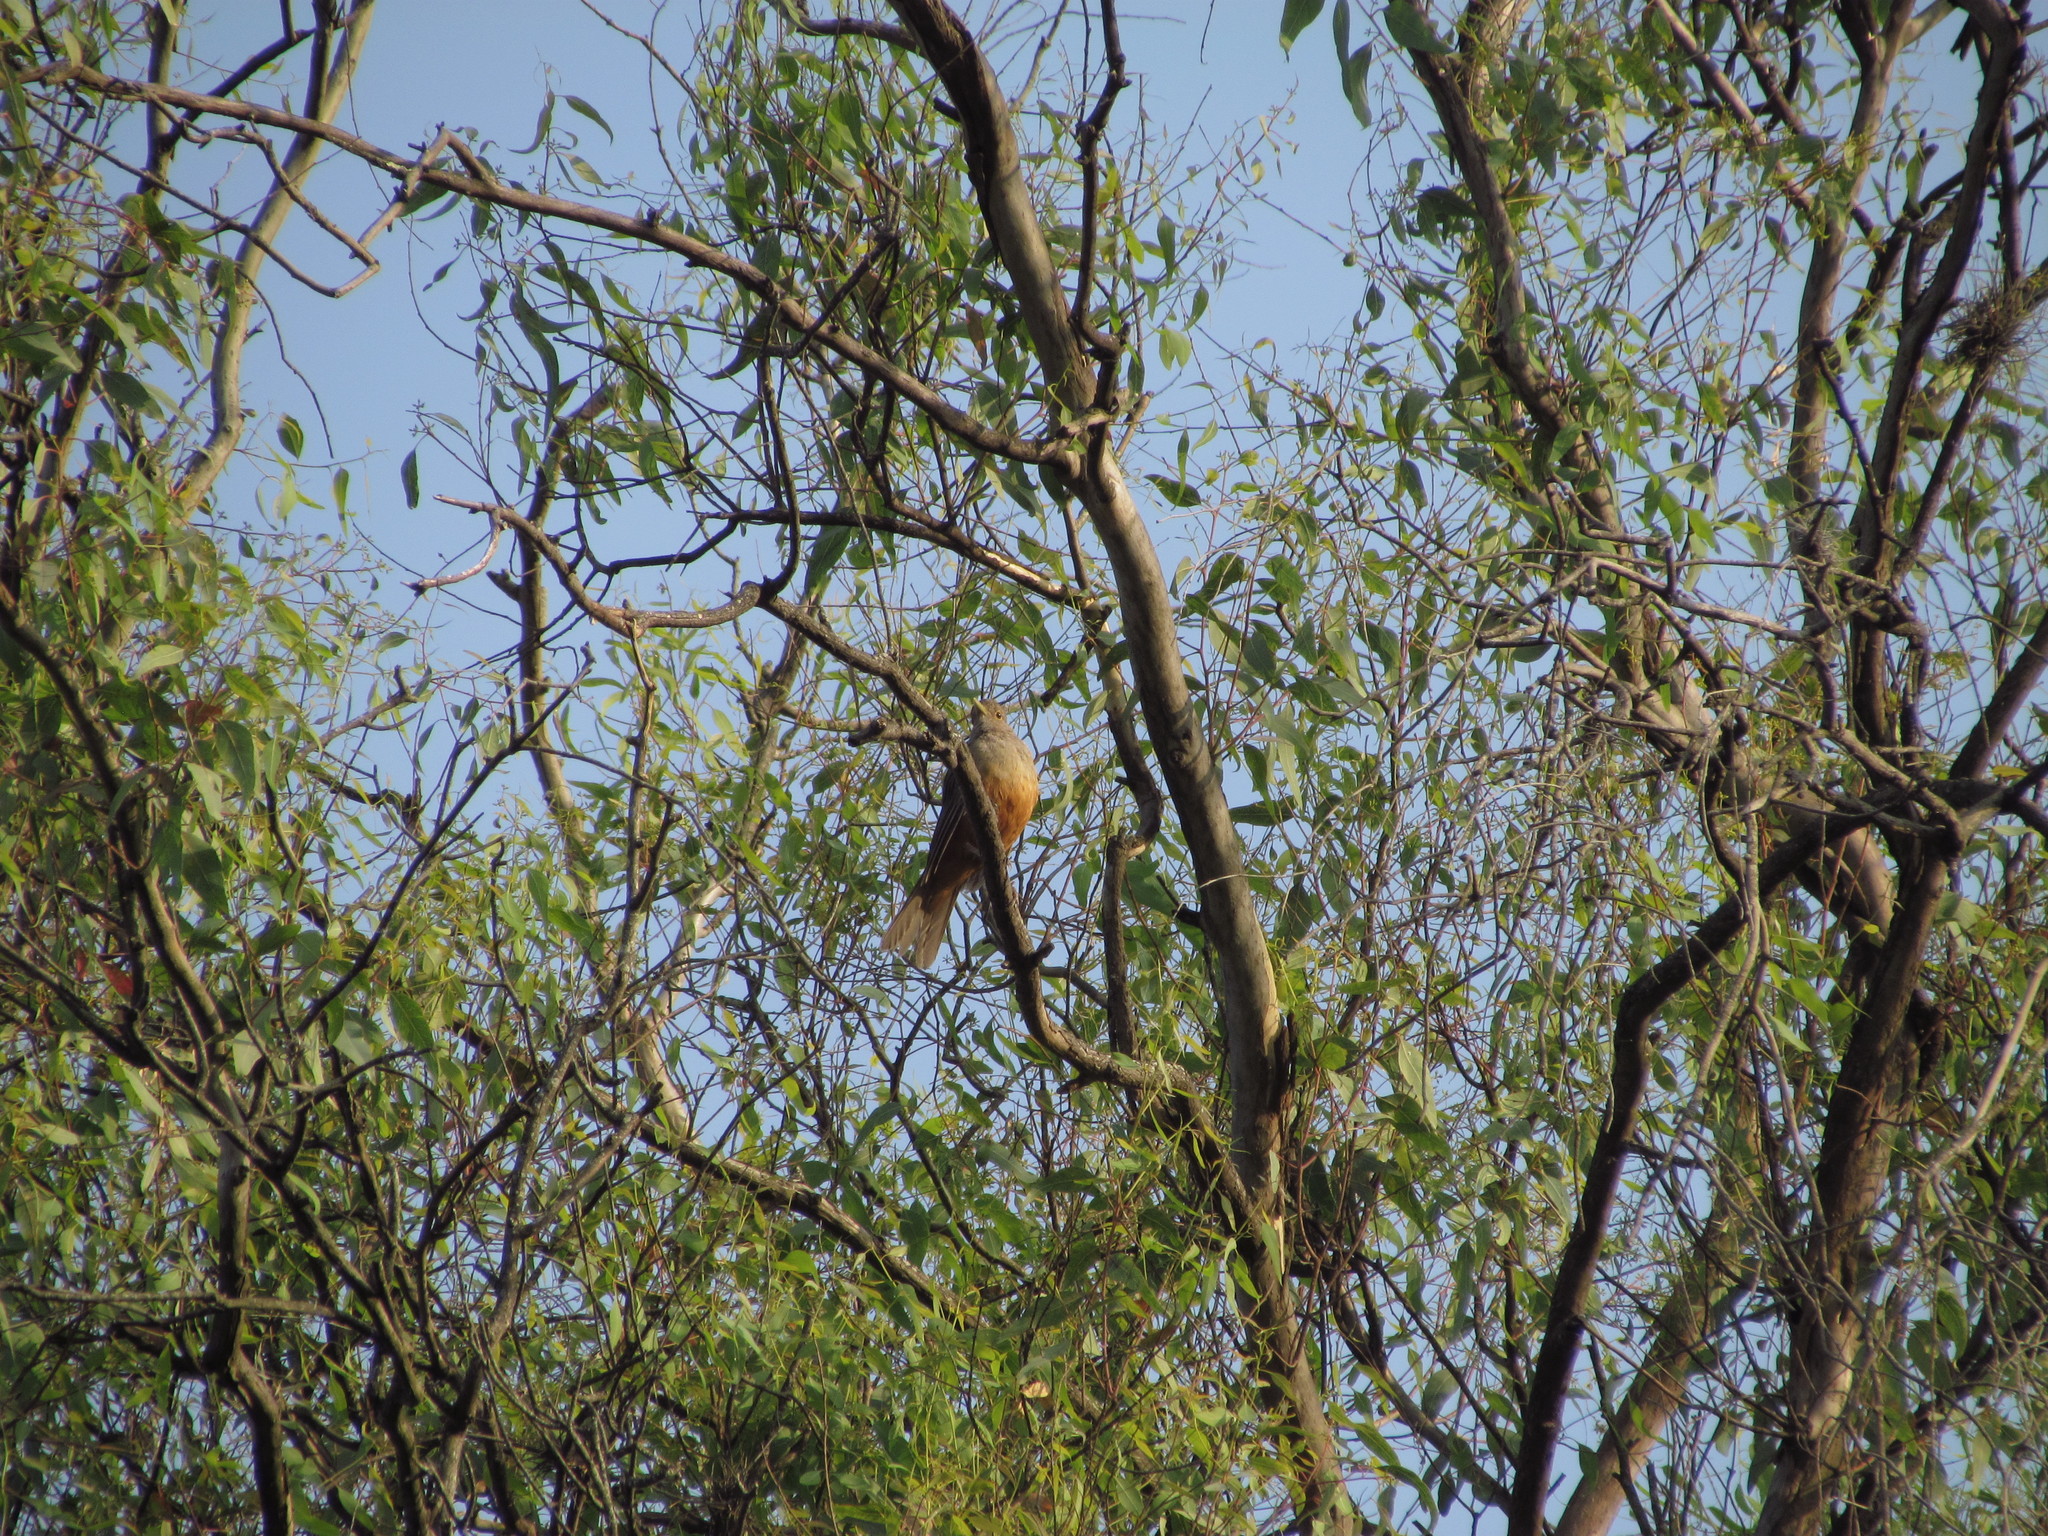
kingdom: Animalia
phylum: Chordata
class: Aves
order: Passeriformes
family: Turdidae
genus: Turdus
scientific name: Turdus rufiventris
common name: Rufous-bellied thrush
